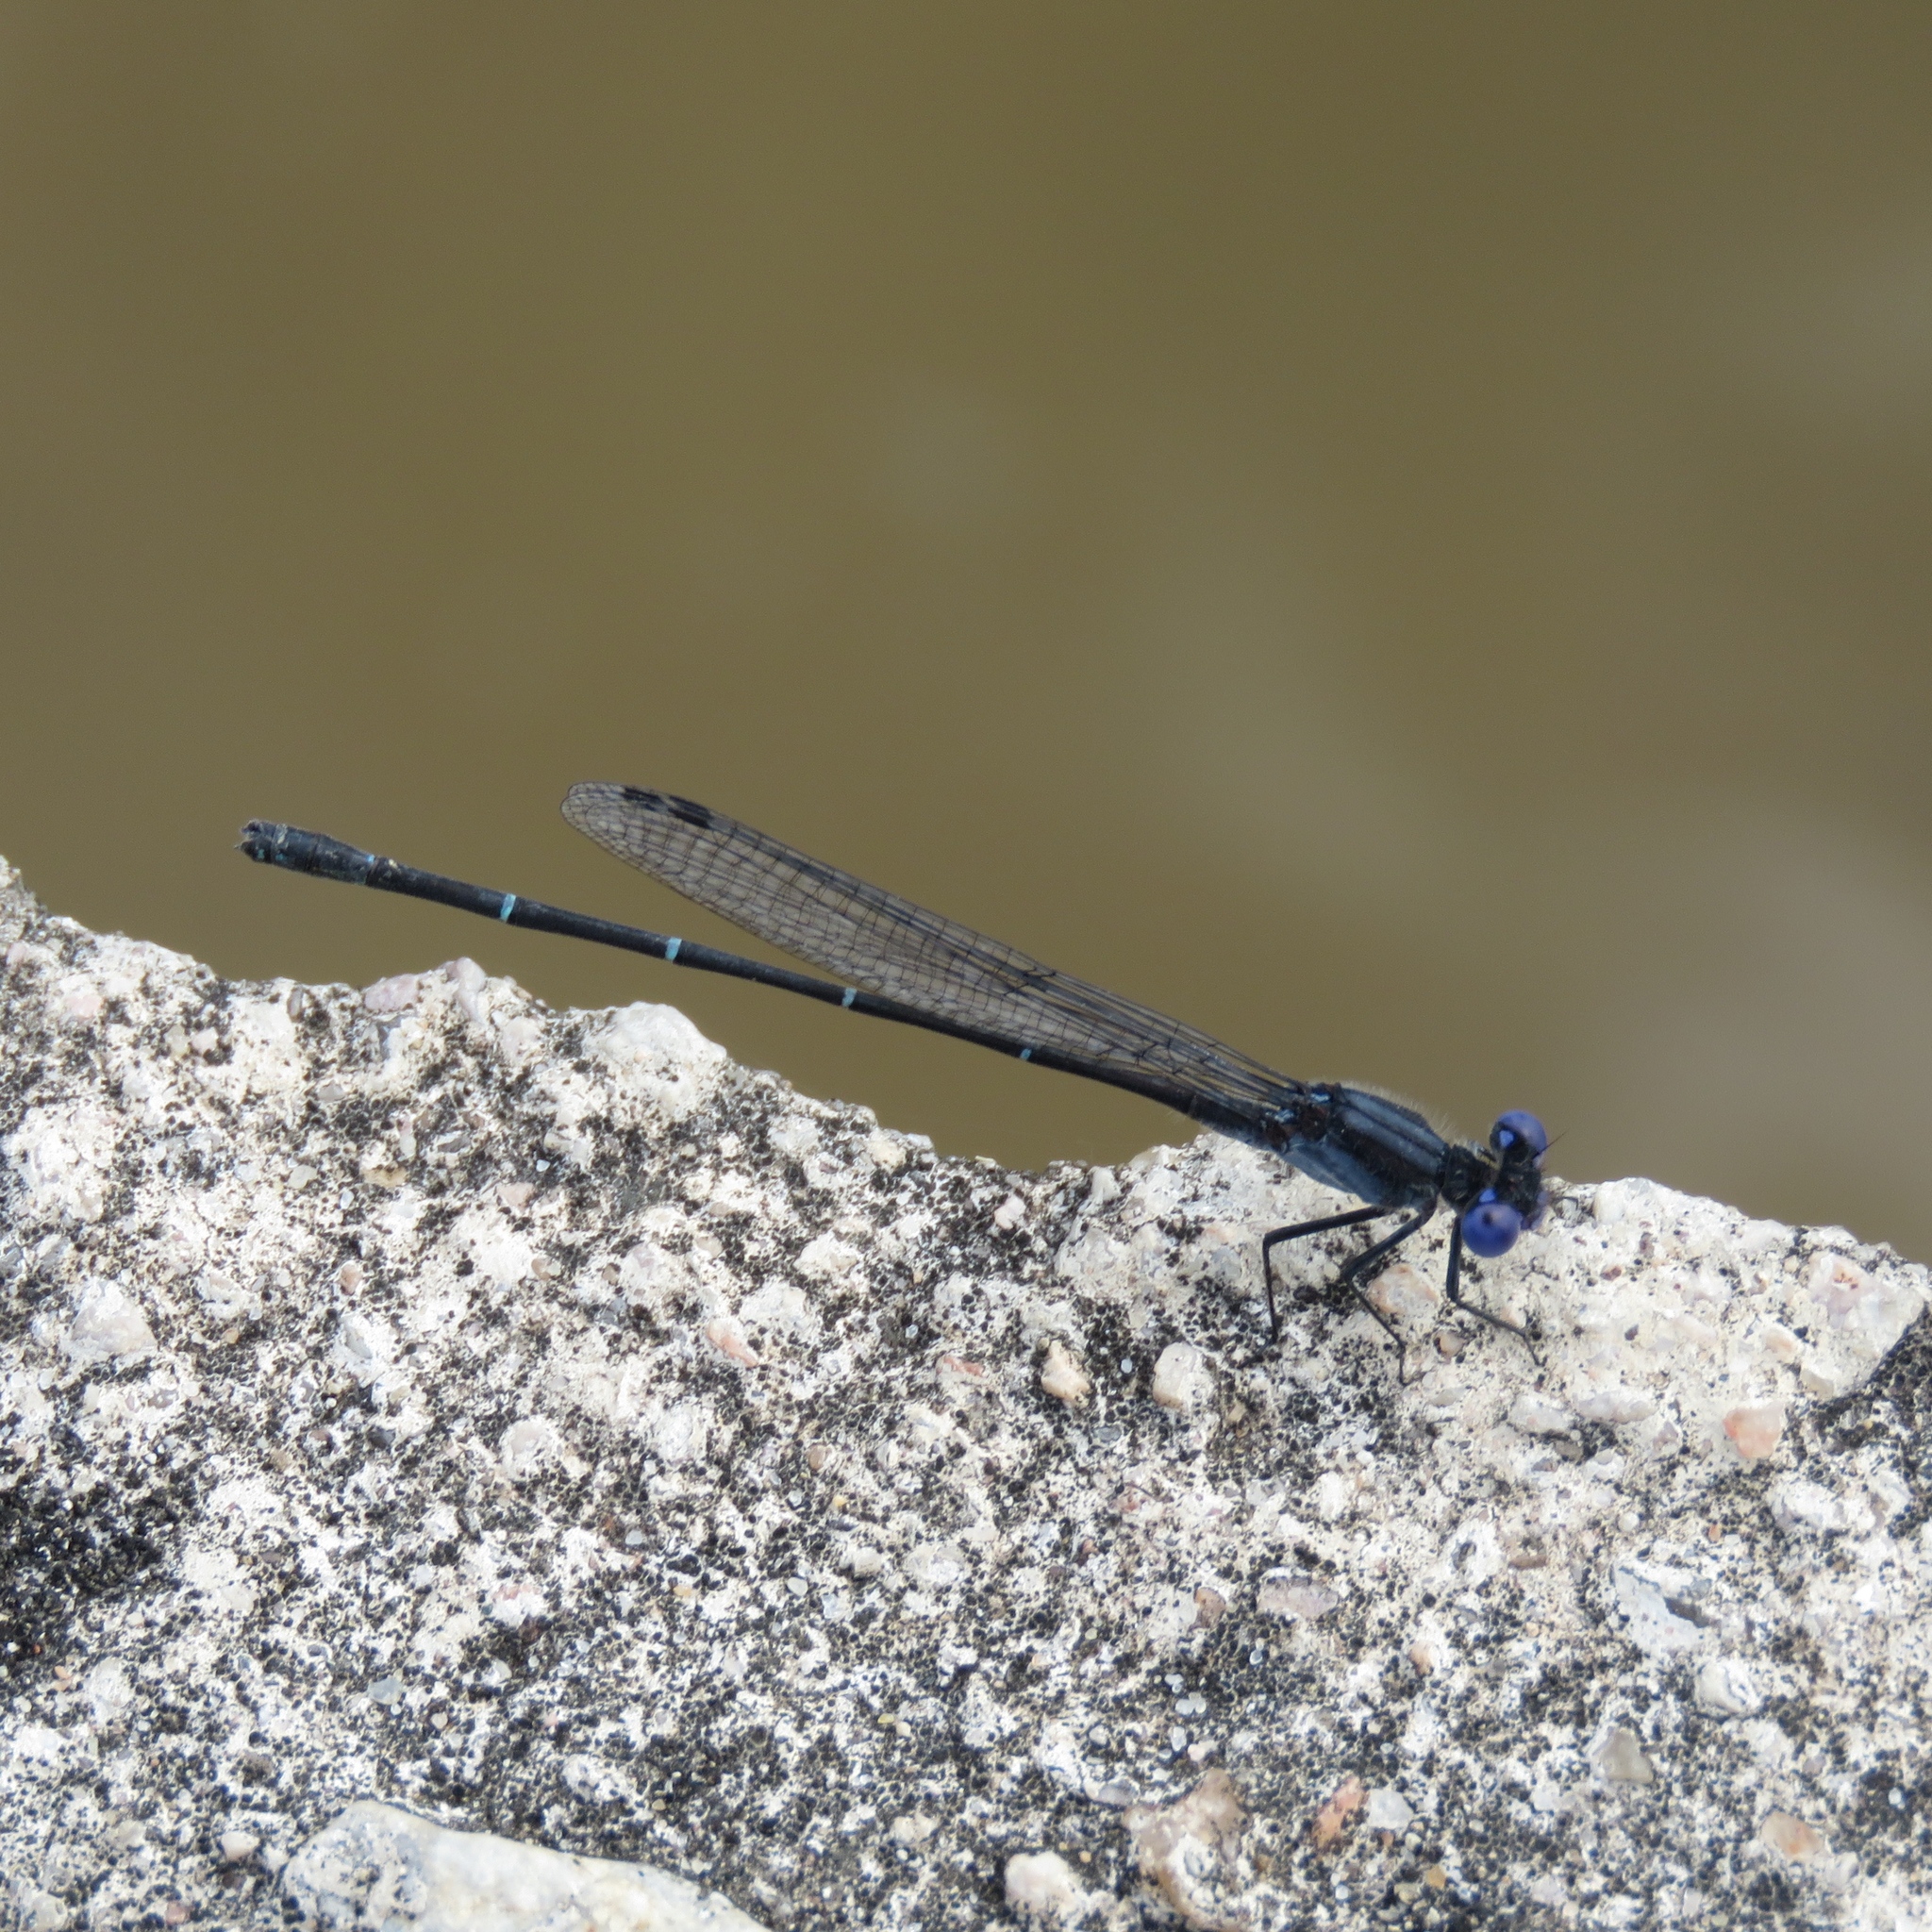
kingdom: Animalia
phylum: Arthropoda
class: Insecta
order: Odonata
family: Coenagrionidae
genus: Argia
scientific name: Argia translata
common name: Dusky dancer
